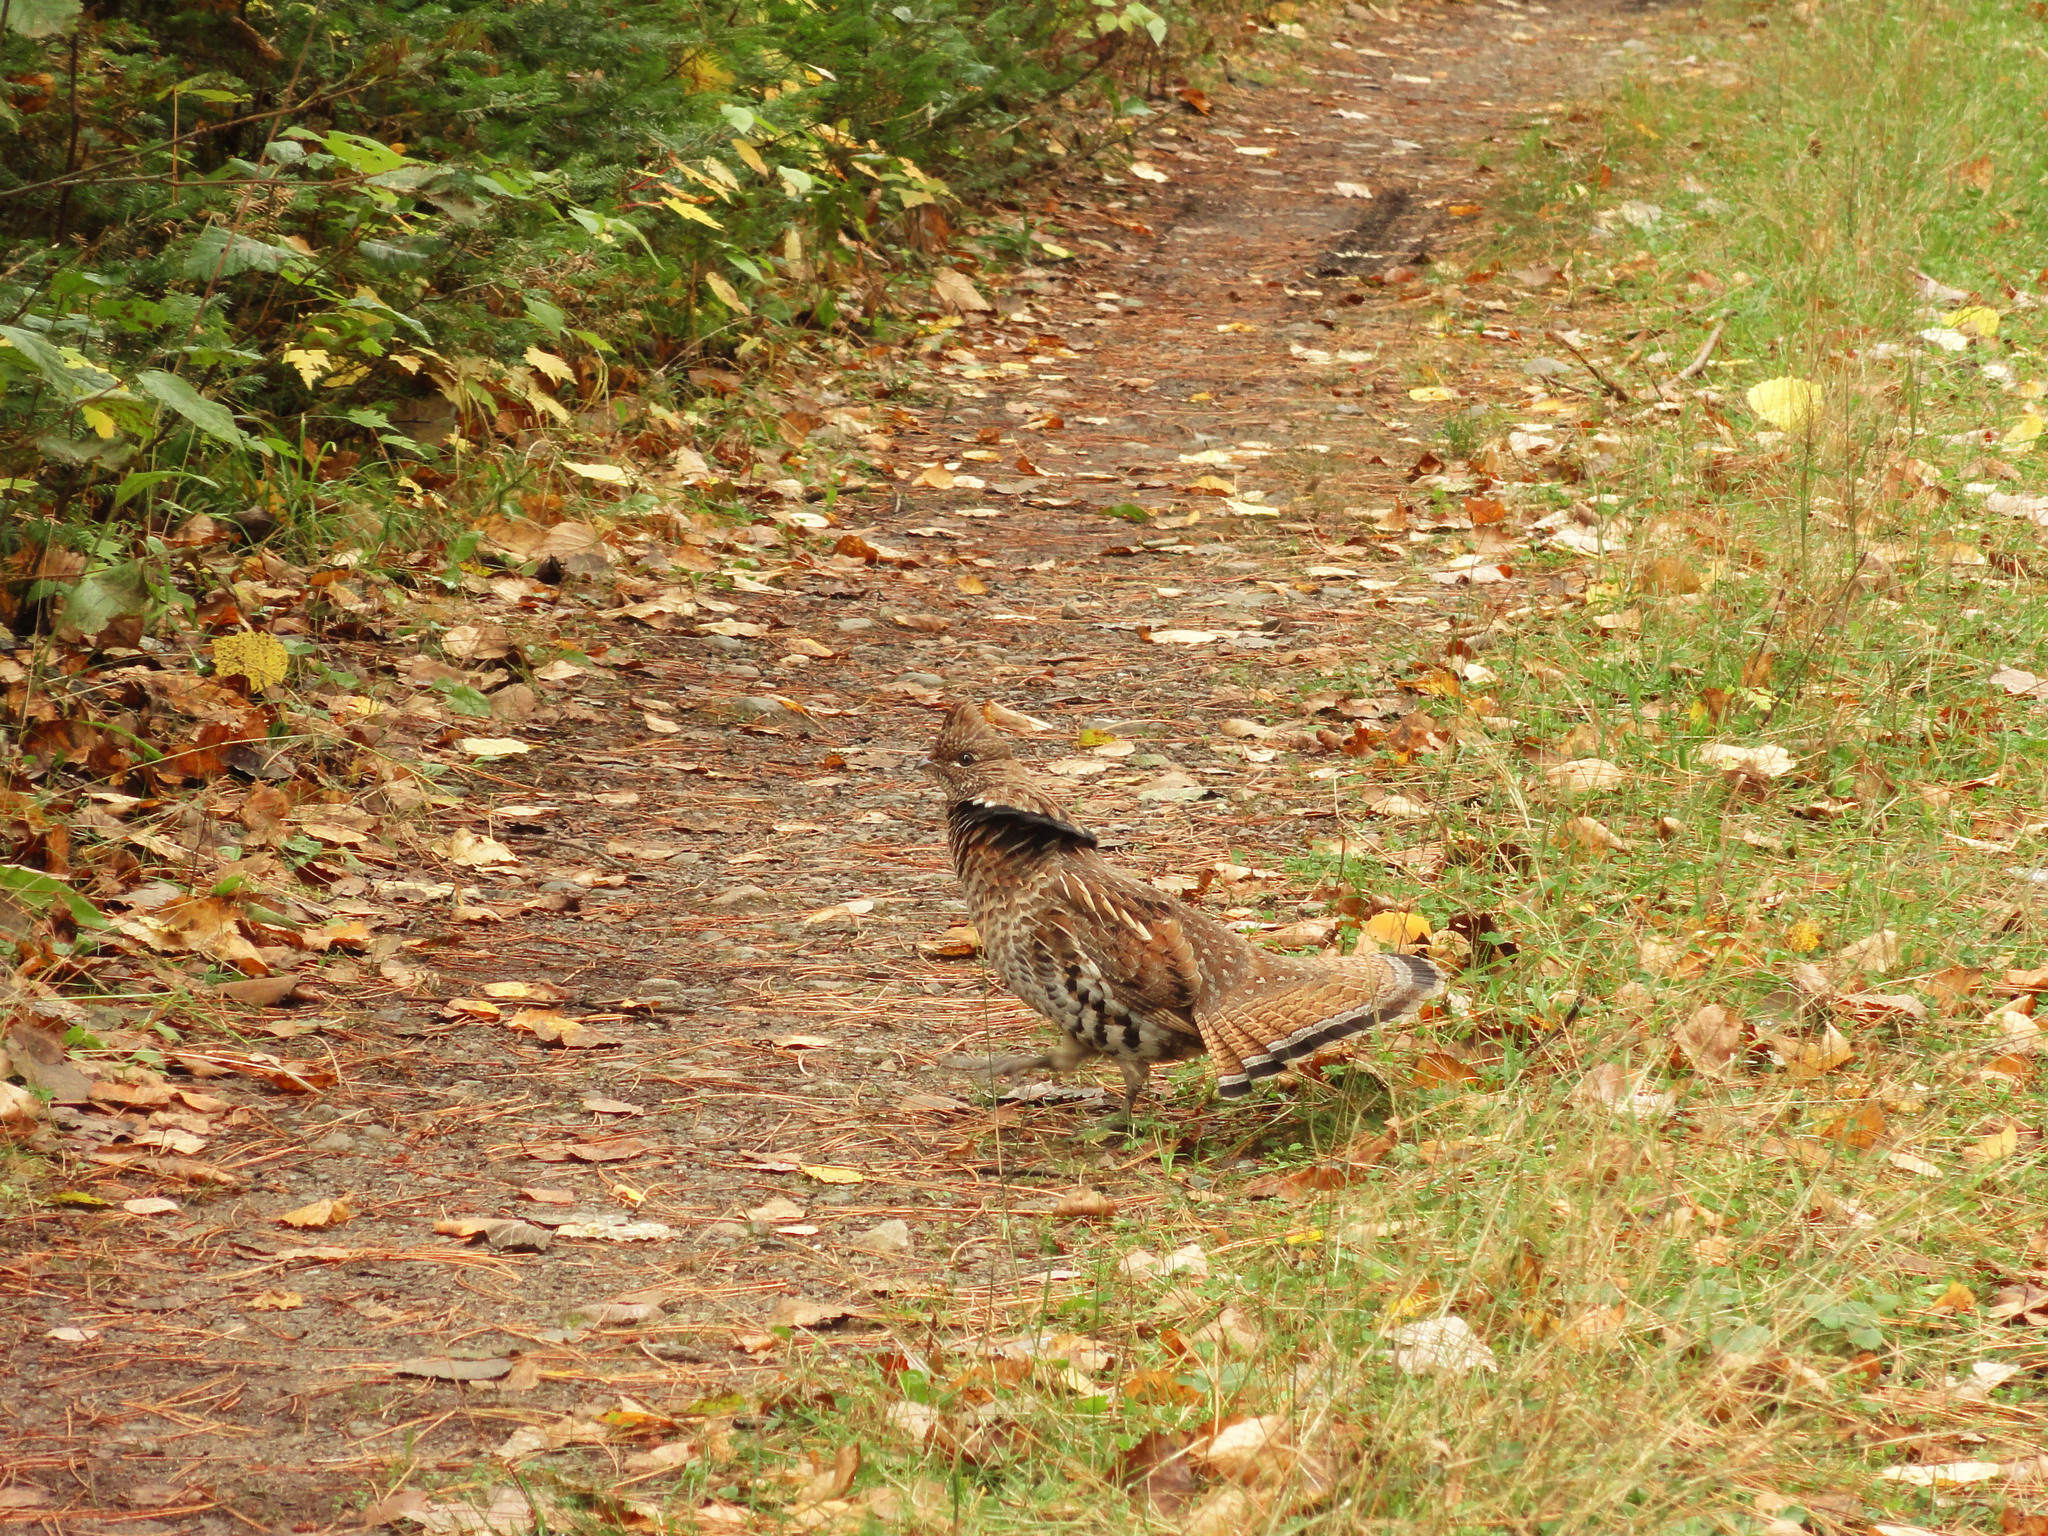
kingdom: Animalia
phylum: Chordata
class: Aves
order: Galliformes
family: Phasianidae
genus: Bonasa
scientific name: Bonasa umbellus
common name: Ruffed grouse
